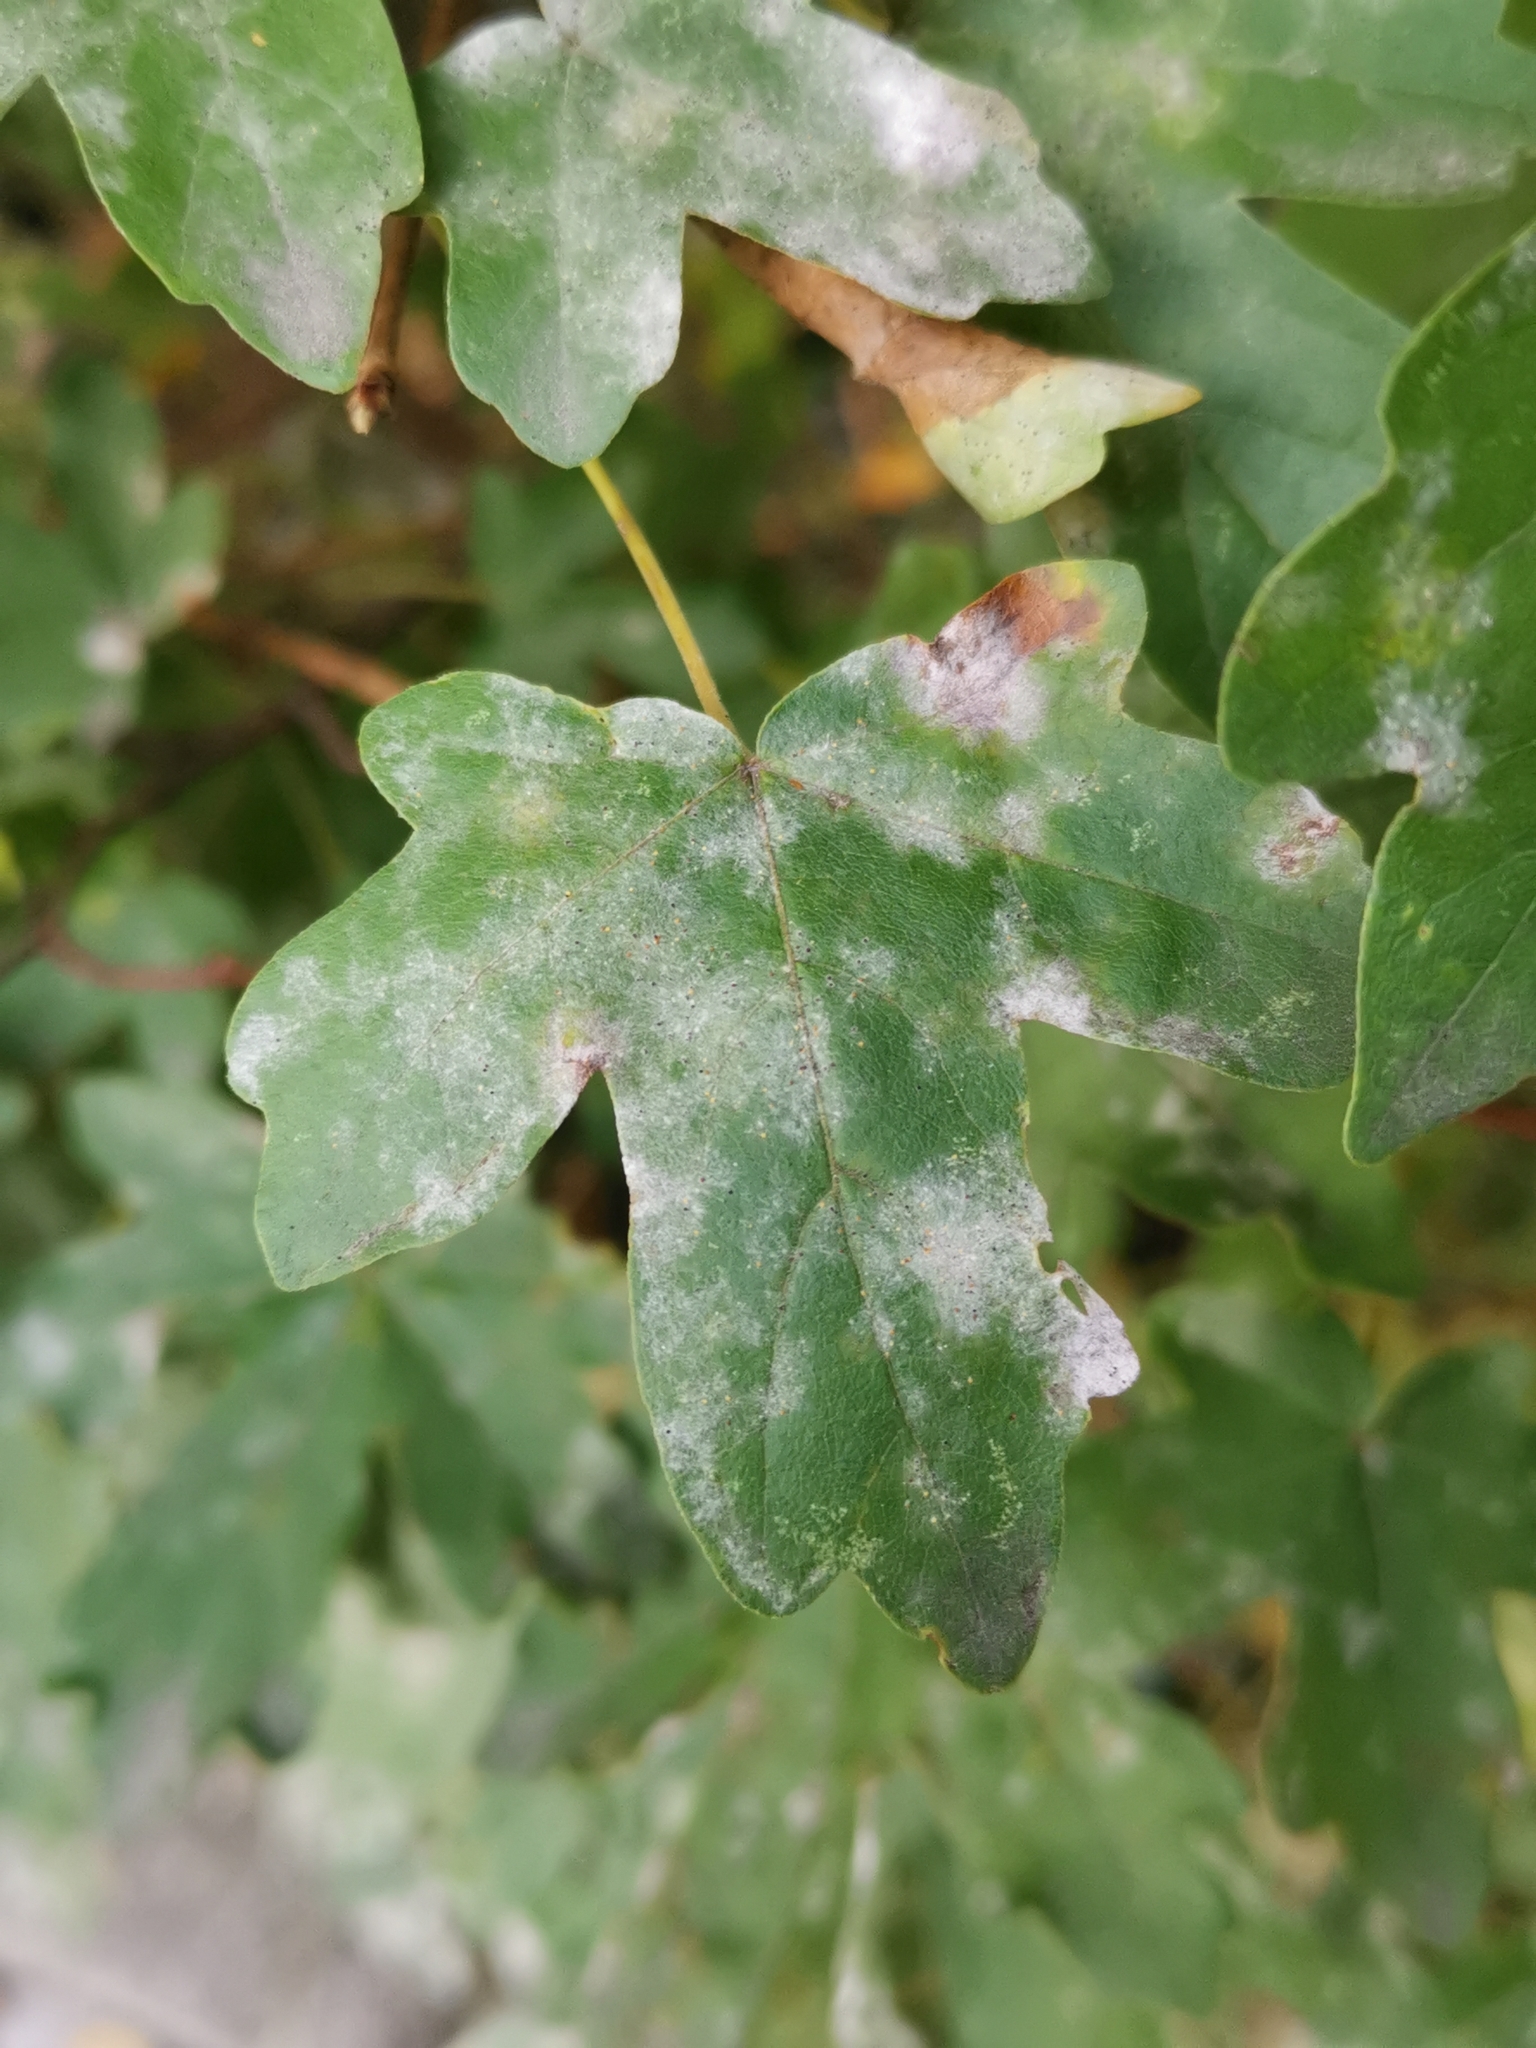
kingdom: Fungi
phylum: Ascomycota
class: Leotiomycetes
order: Helotiales
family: Erysiphaceae
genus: Sawadaea
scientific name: Sawadaea bicornis
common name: Maple mildew
